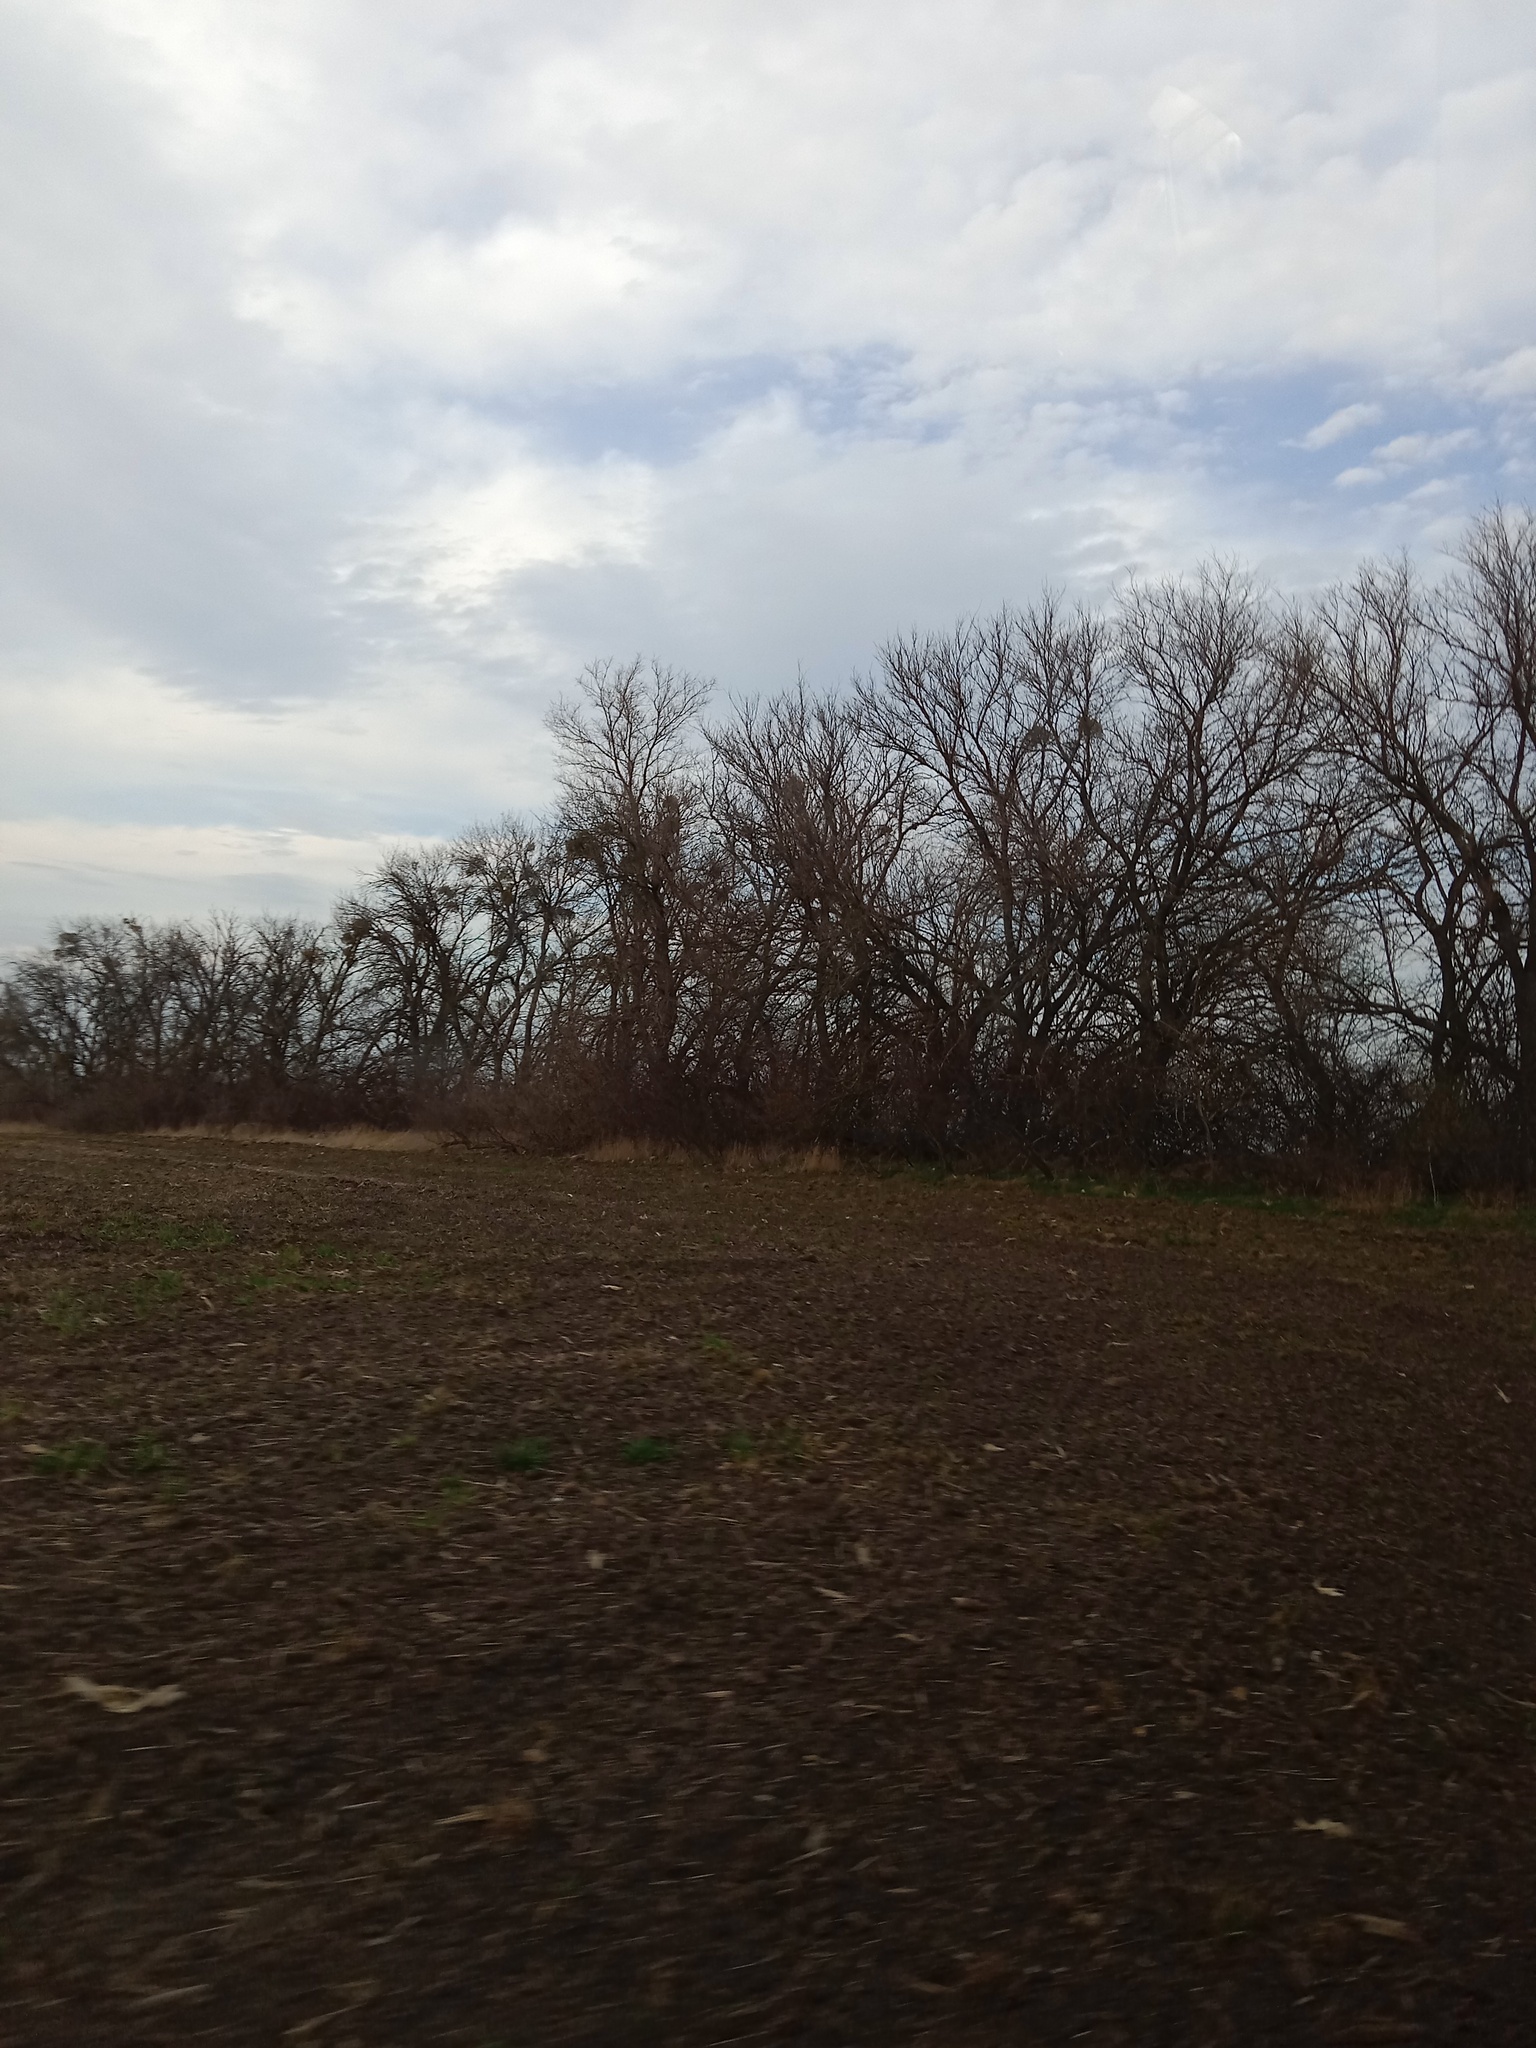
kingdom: Plantae
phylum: Tracheophyta
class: Magnoliopsida
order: Santalales
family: Viscaceae
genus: Viscum
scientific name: Viscum album
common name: Mistletoe
